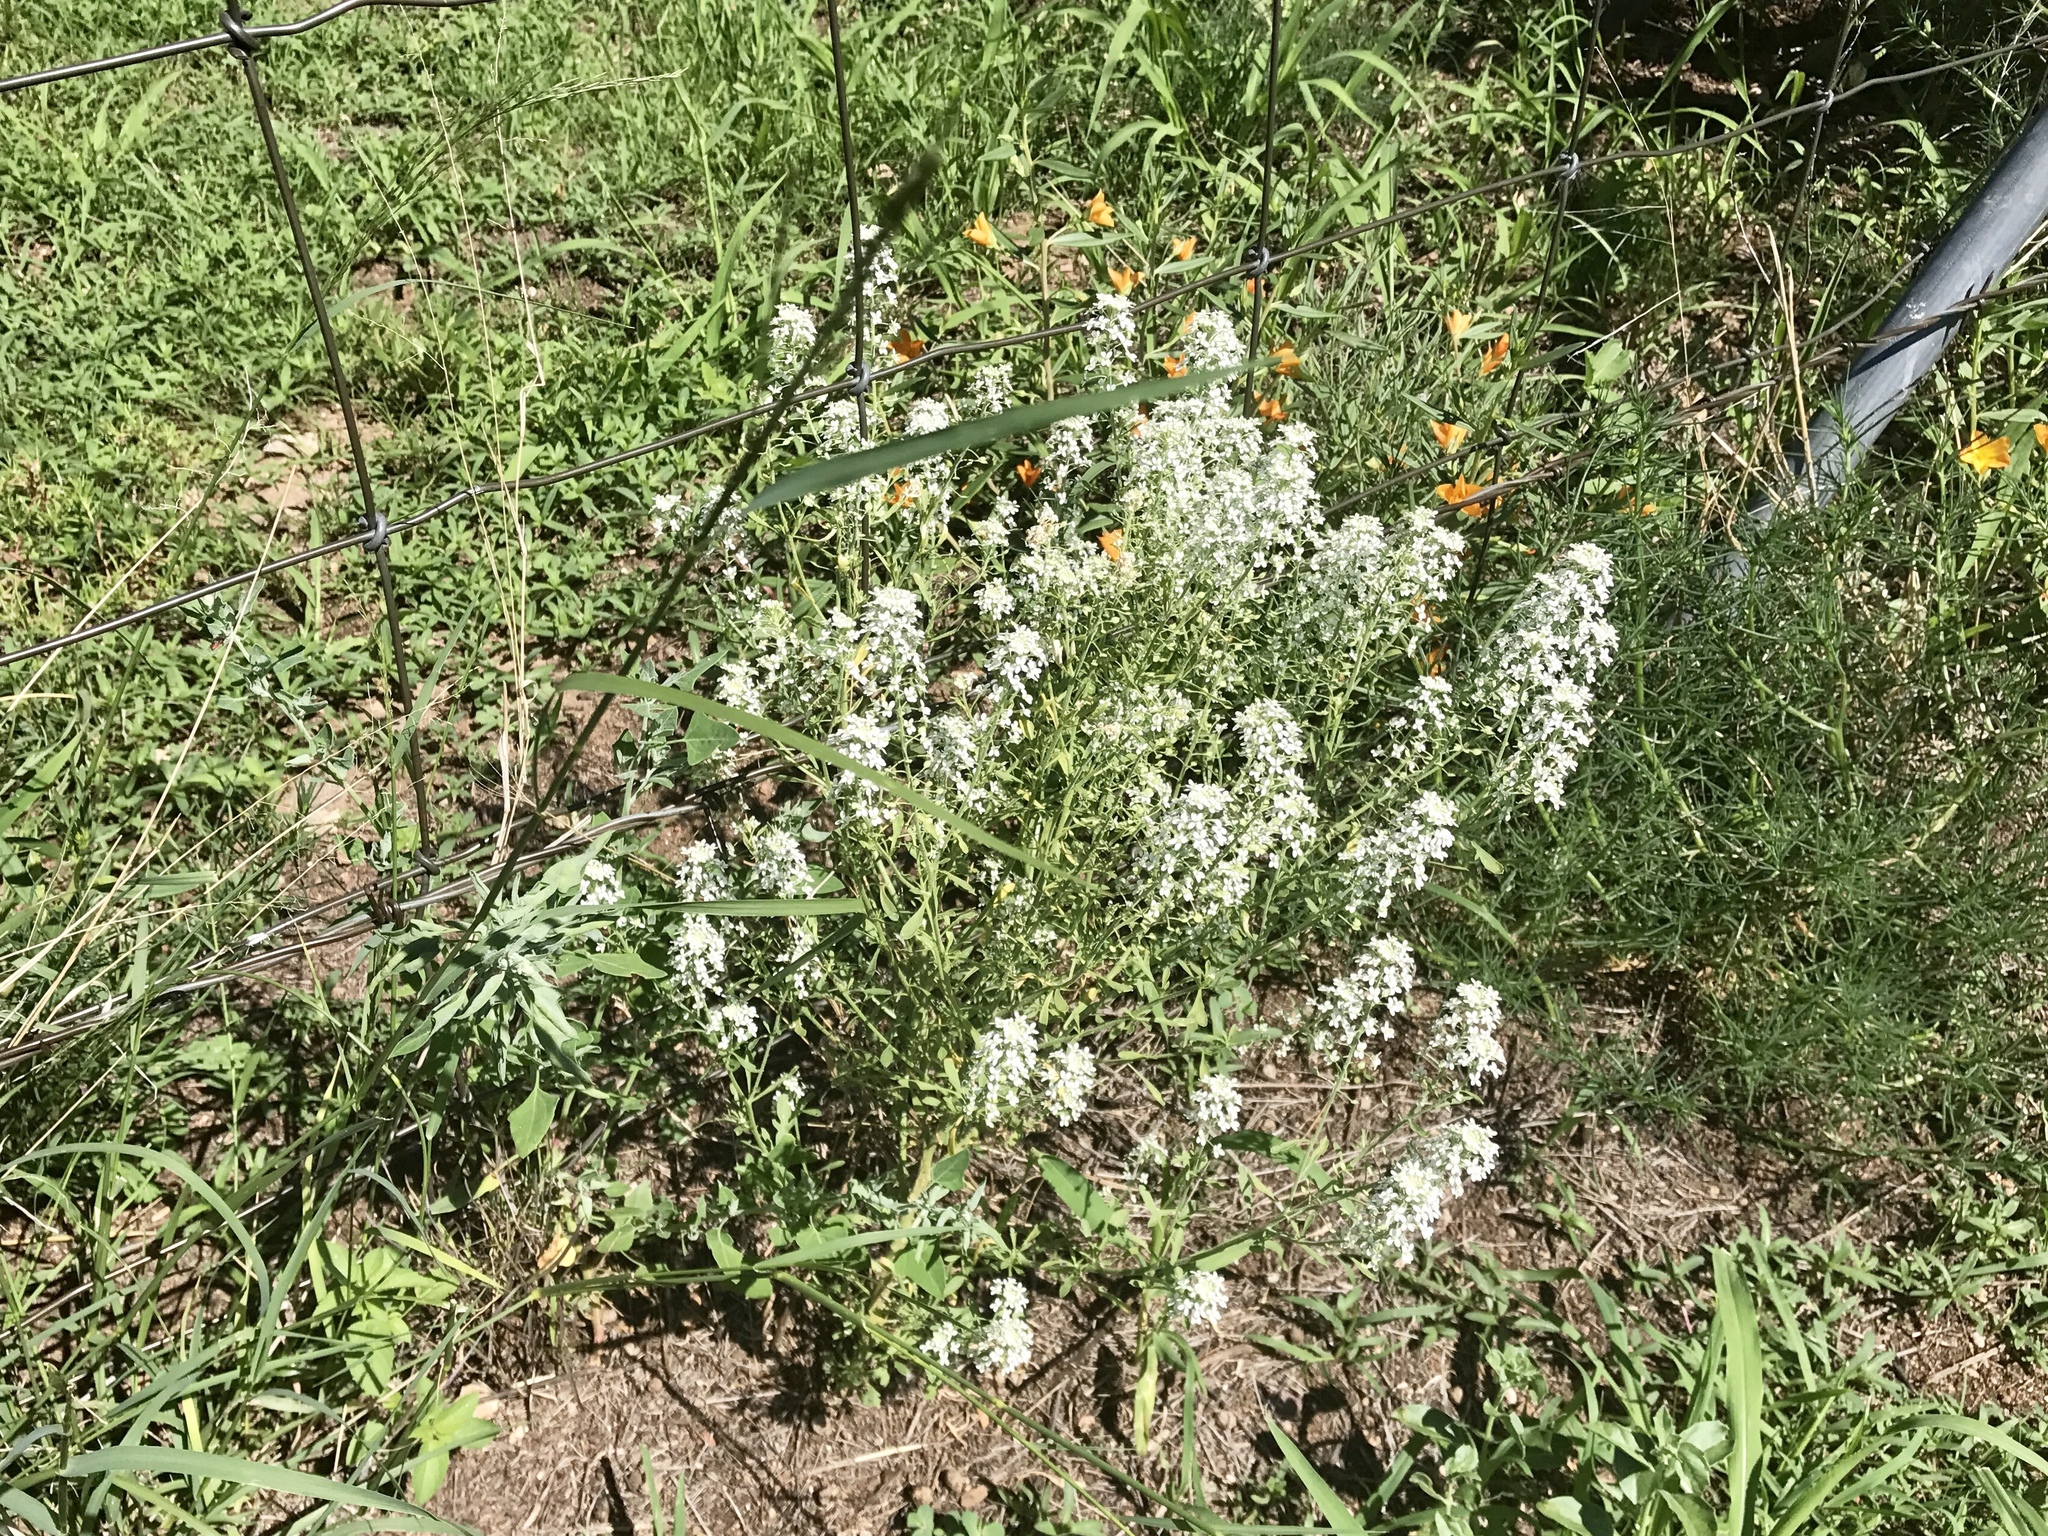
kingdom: Plantae
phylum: Tracheophyta
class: Magnoliopsida
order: Brassicales
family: Brassicaceae
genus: Lepidium
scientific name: Lepidium thurberi
